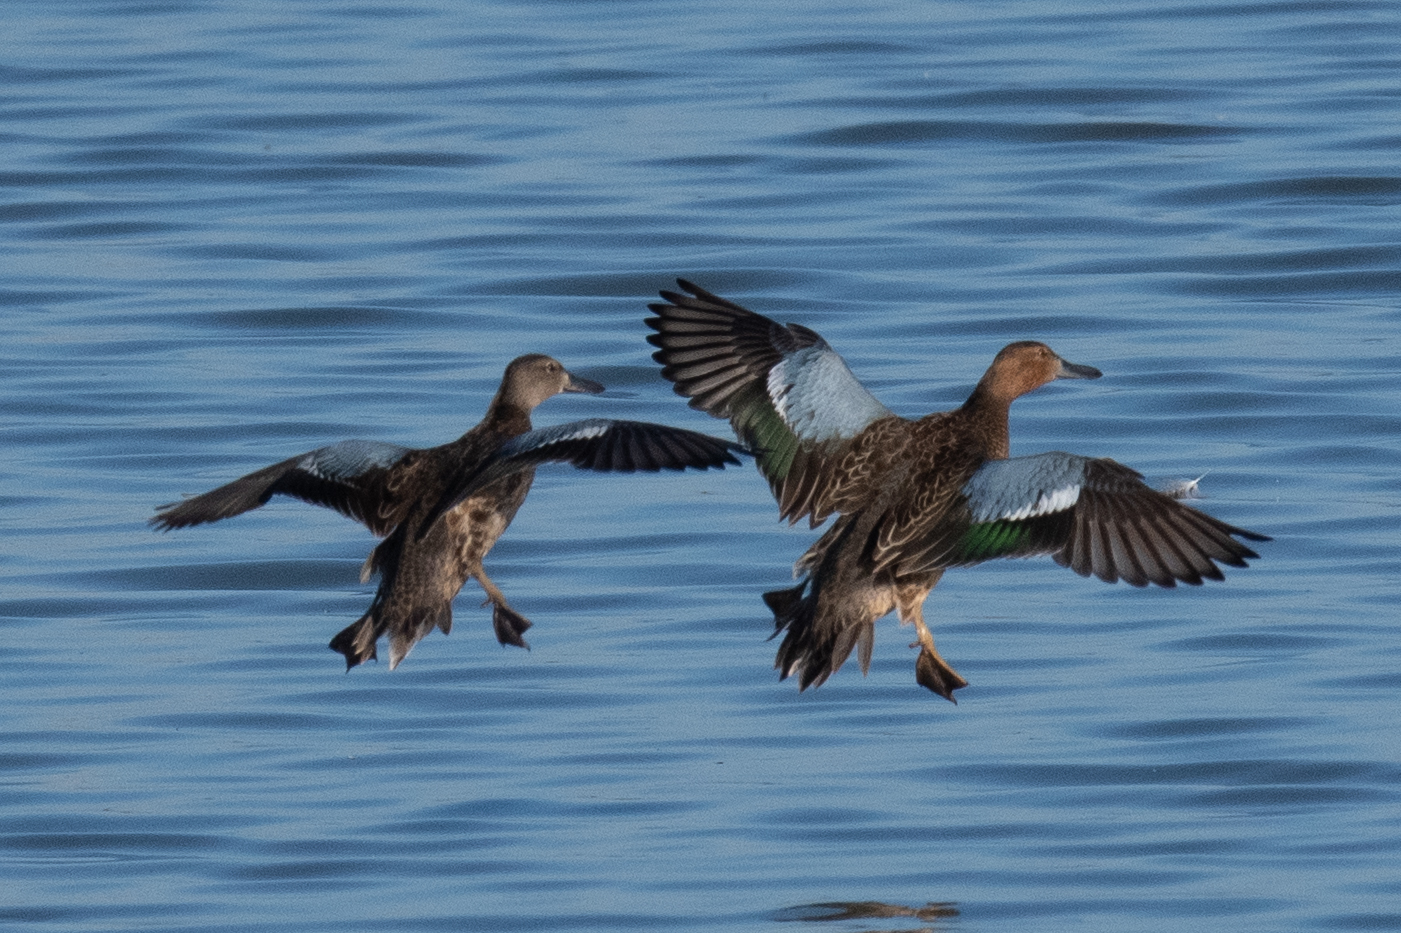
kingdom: Animalia
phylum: Chordata
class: Aves
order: Anseriformes
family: Anatidae
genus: Spatula
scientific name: Spatula cyanoptera
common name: Cinnamon teal
